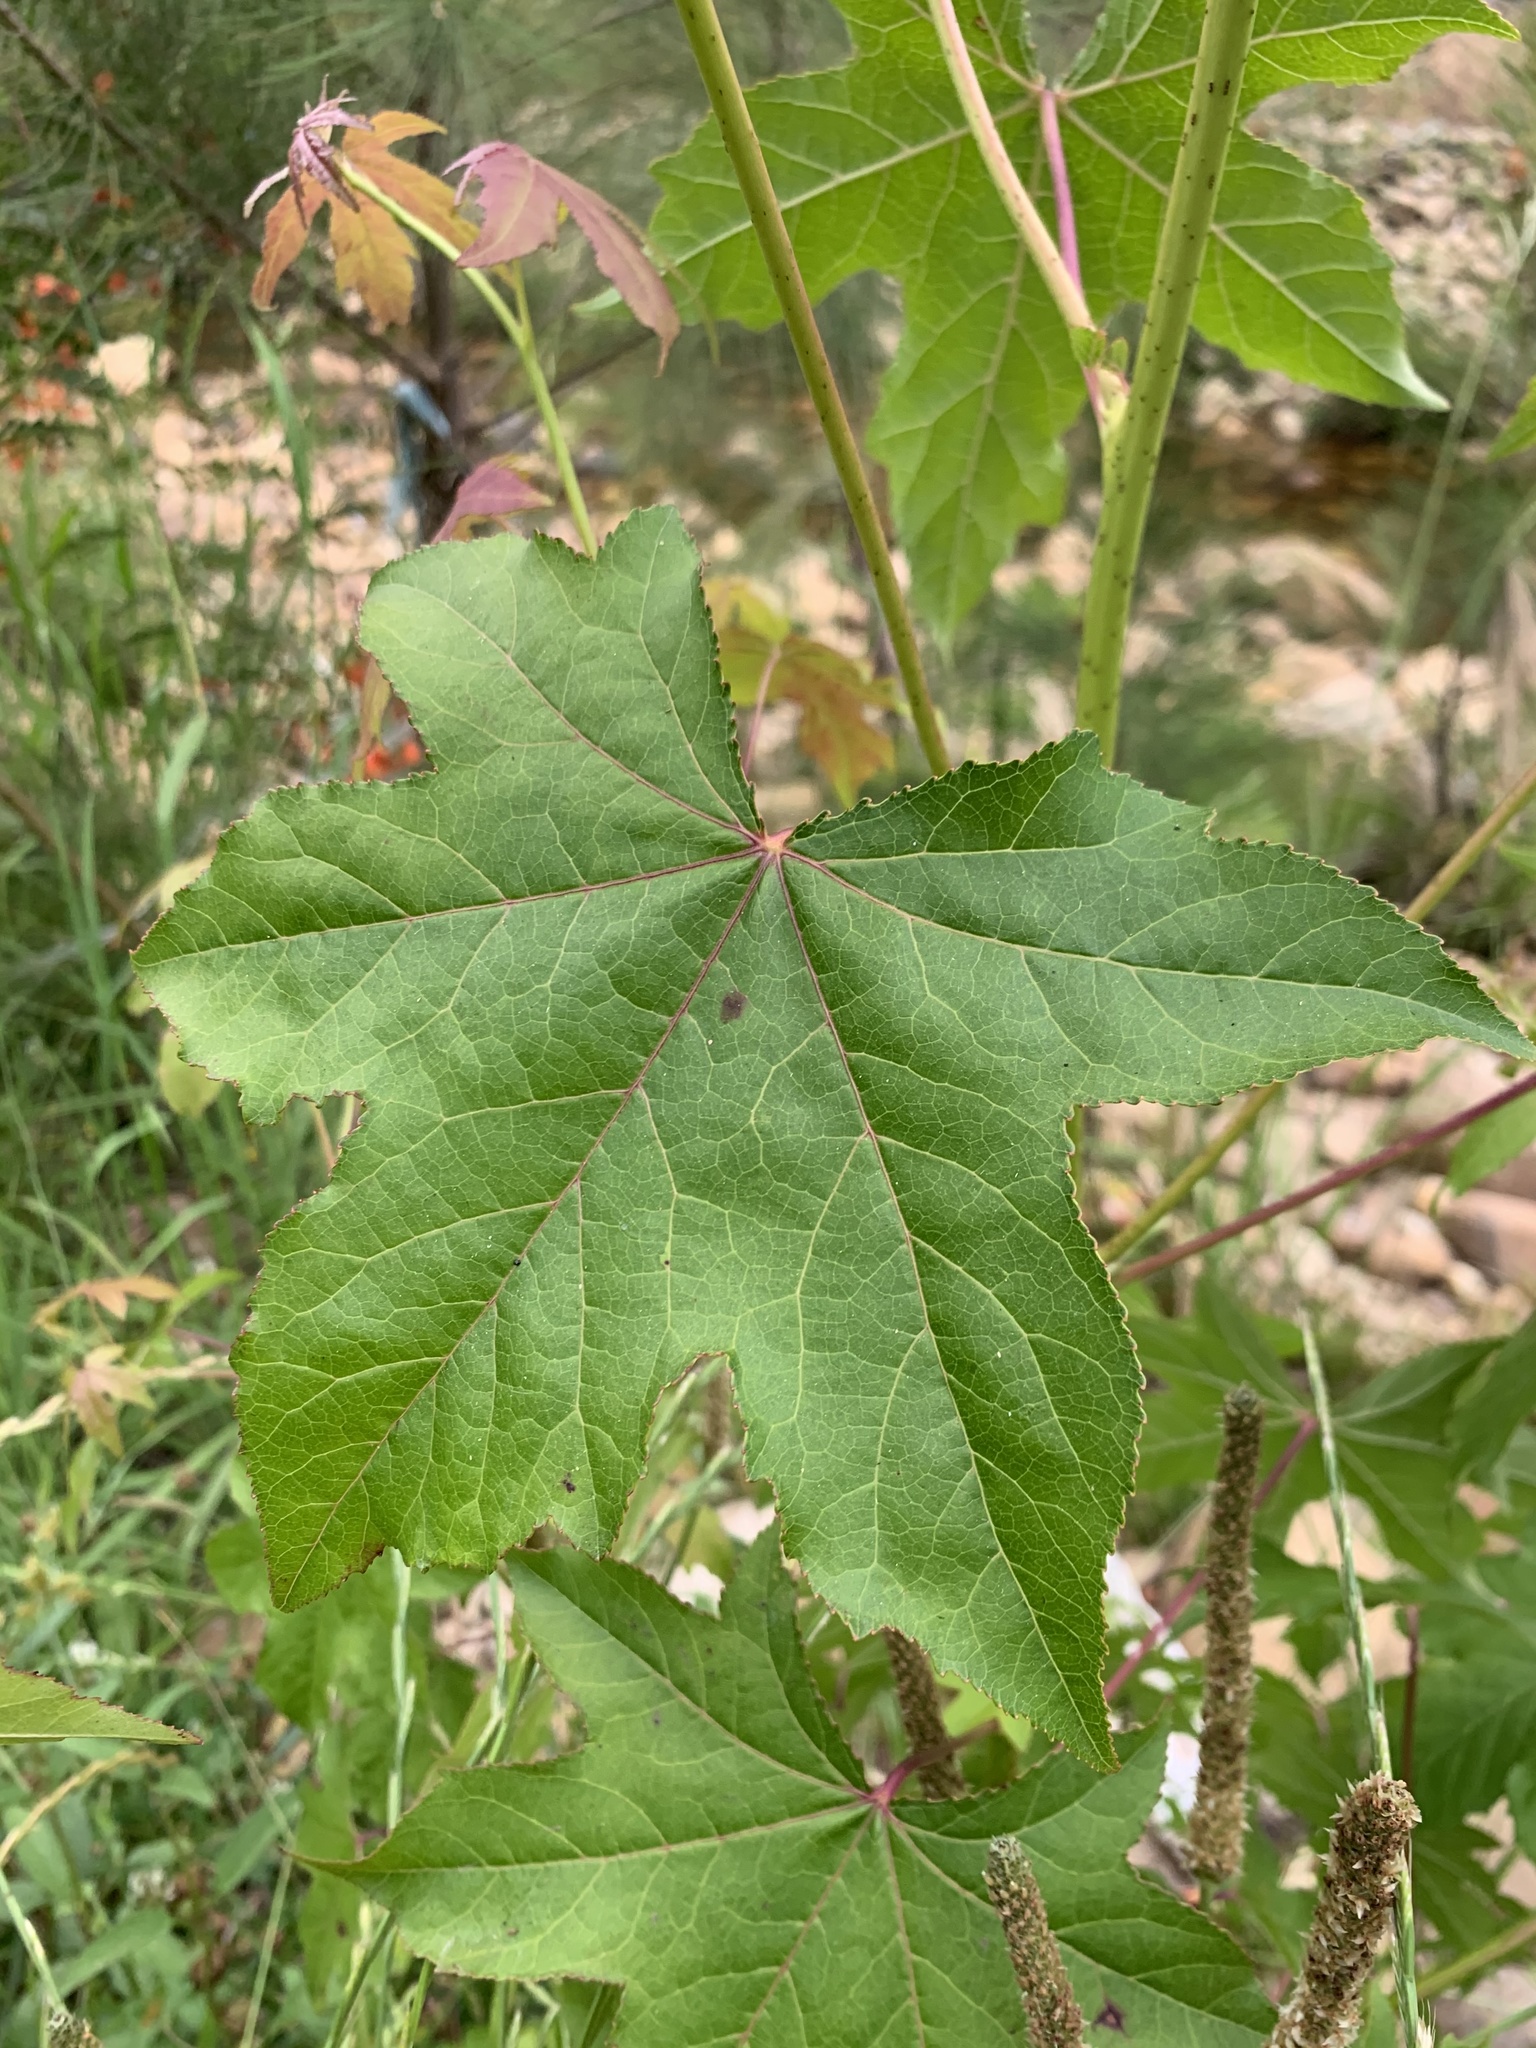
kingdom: Plantae
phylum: Tracheophyta
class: Magnoliopsida
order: Saxifragales
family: Altingiaceae
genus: Liquidambar
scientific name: Liquidambar styraciflua
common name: Sweet gum
